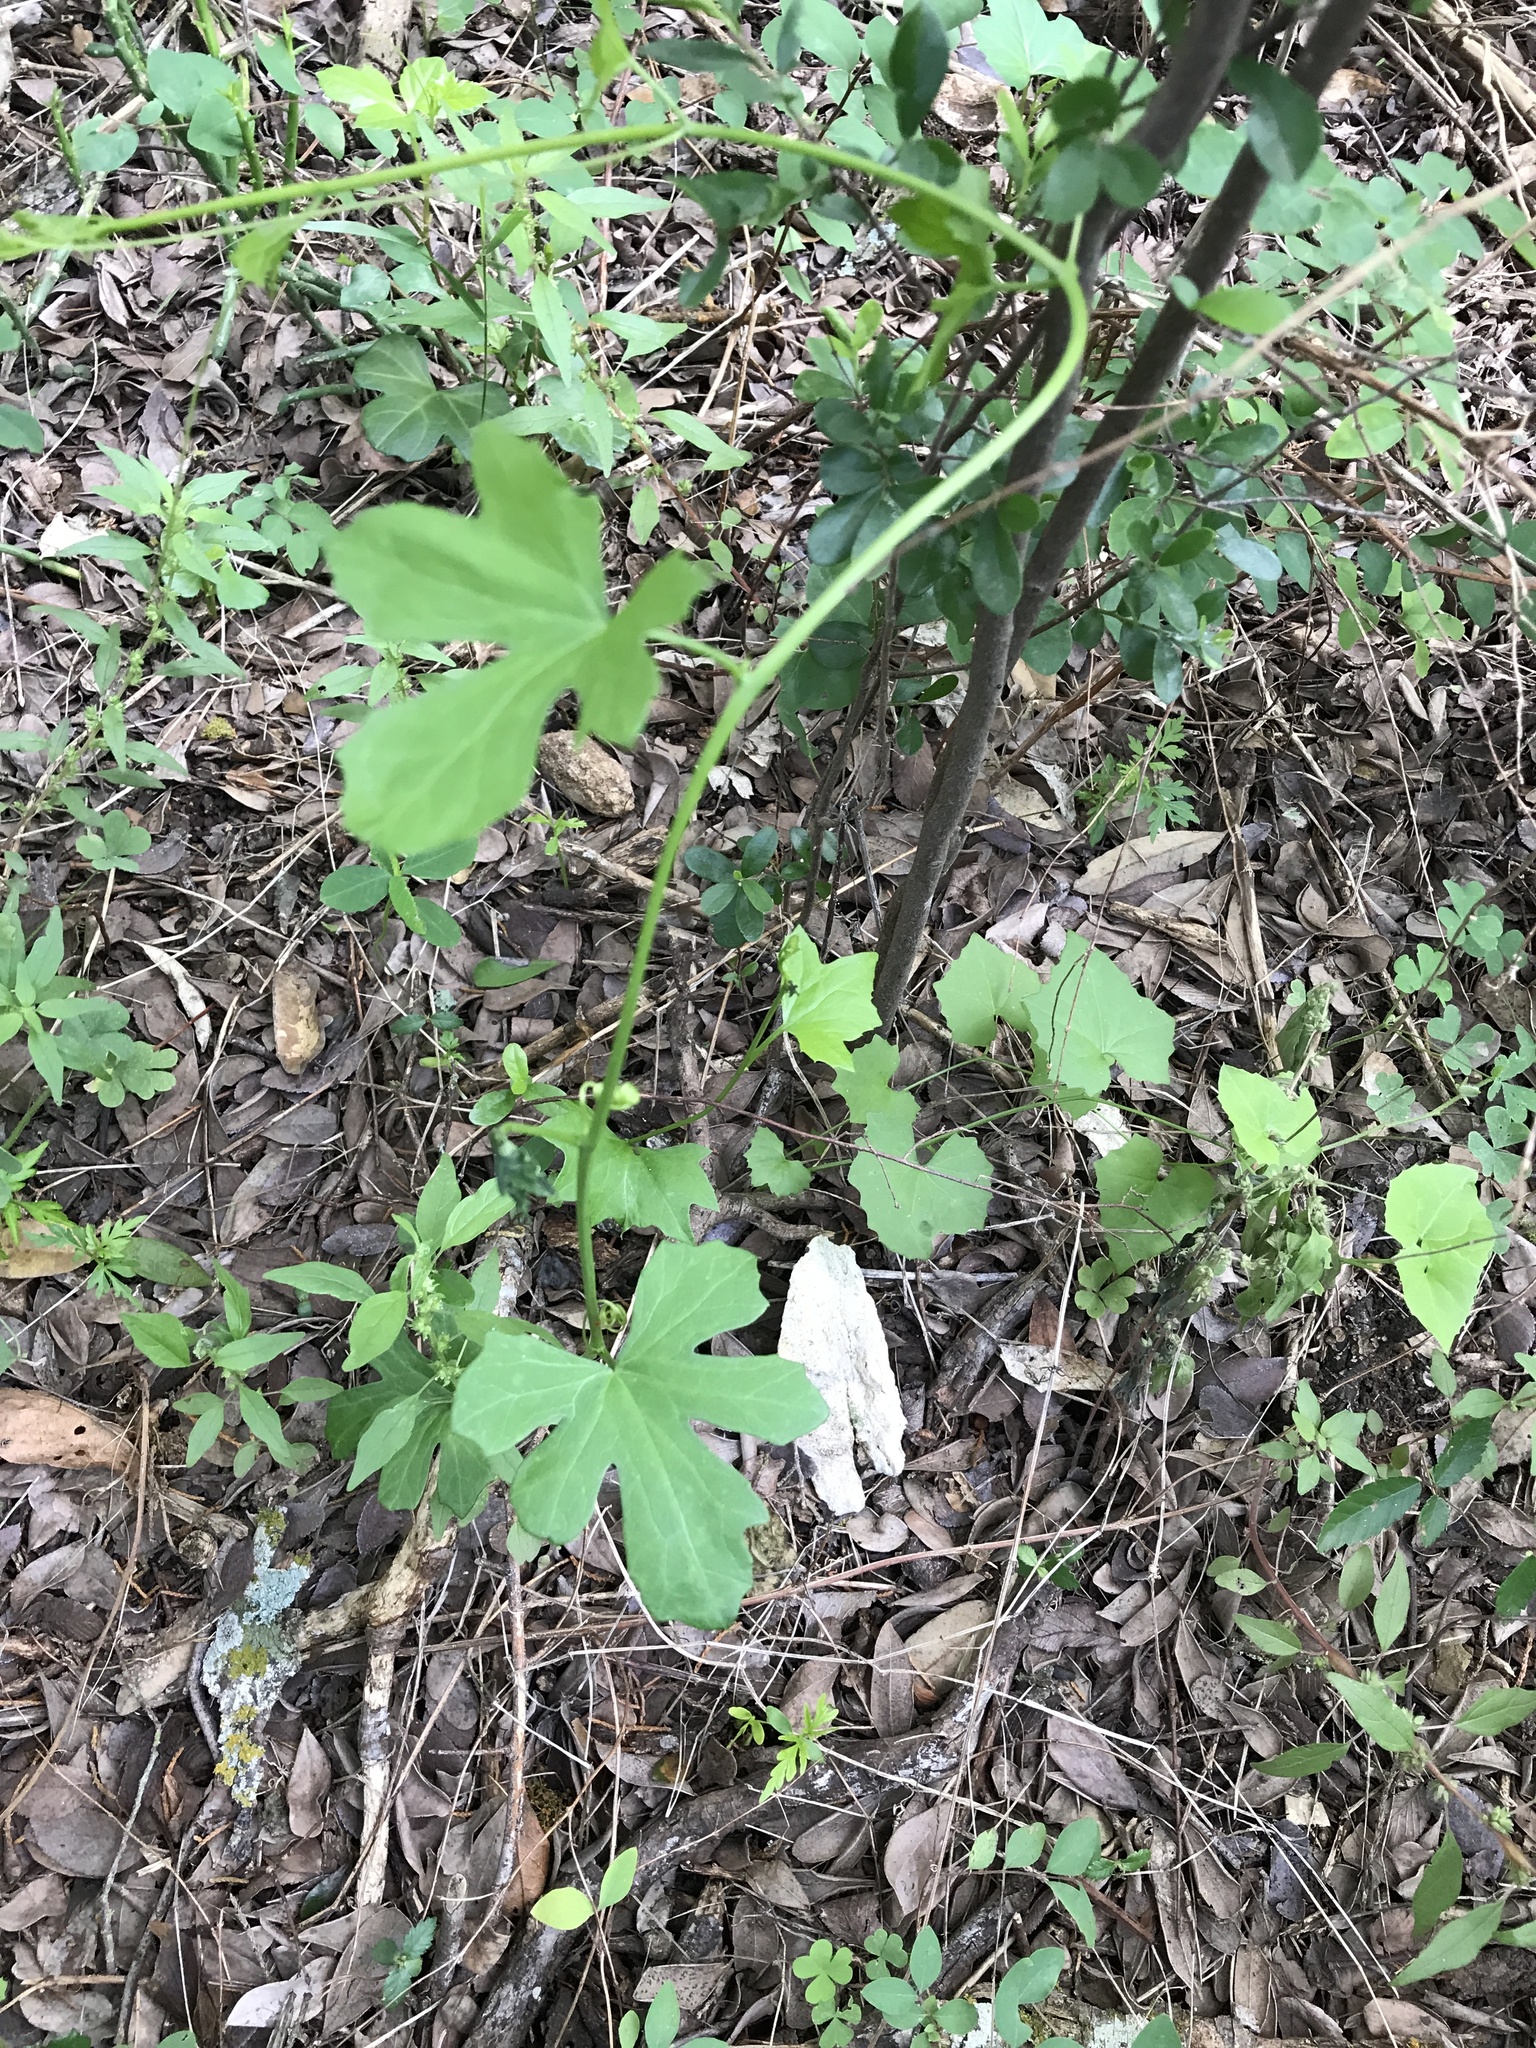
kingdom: Plantae
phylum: Tracheophyta
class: Magnoliopsida
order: Cucurbitales
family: Cucurbitaceae
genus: Ibervillea
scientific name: Ibervillea lindheimeri
